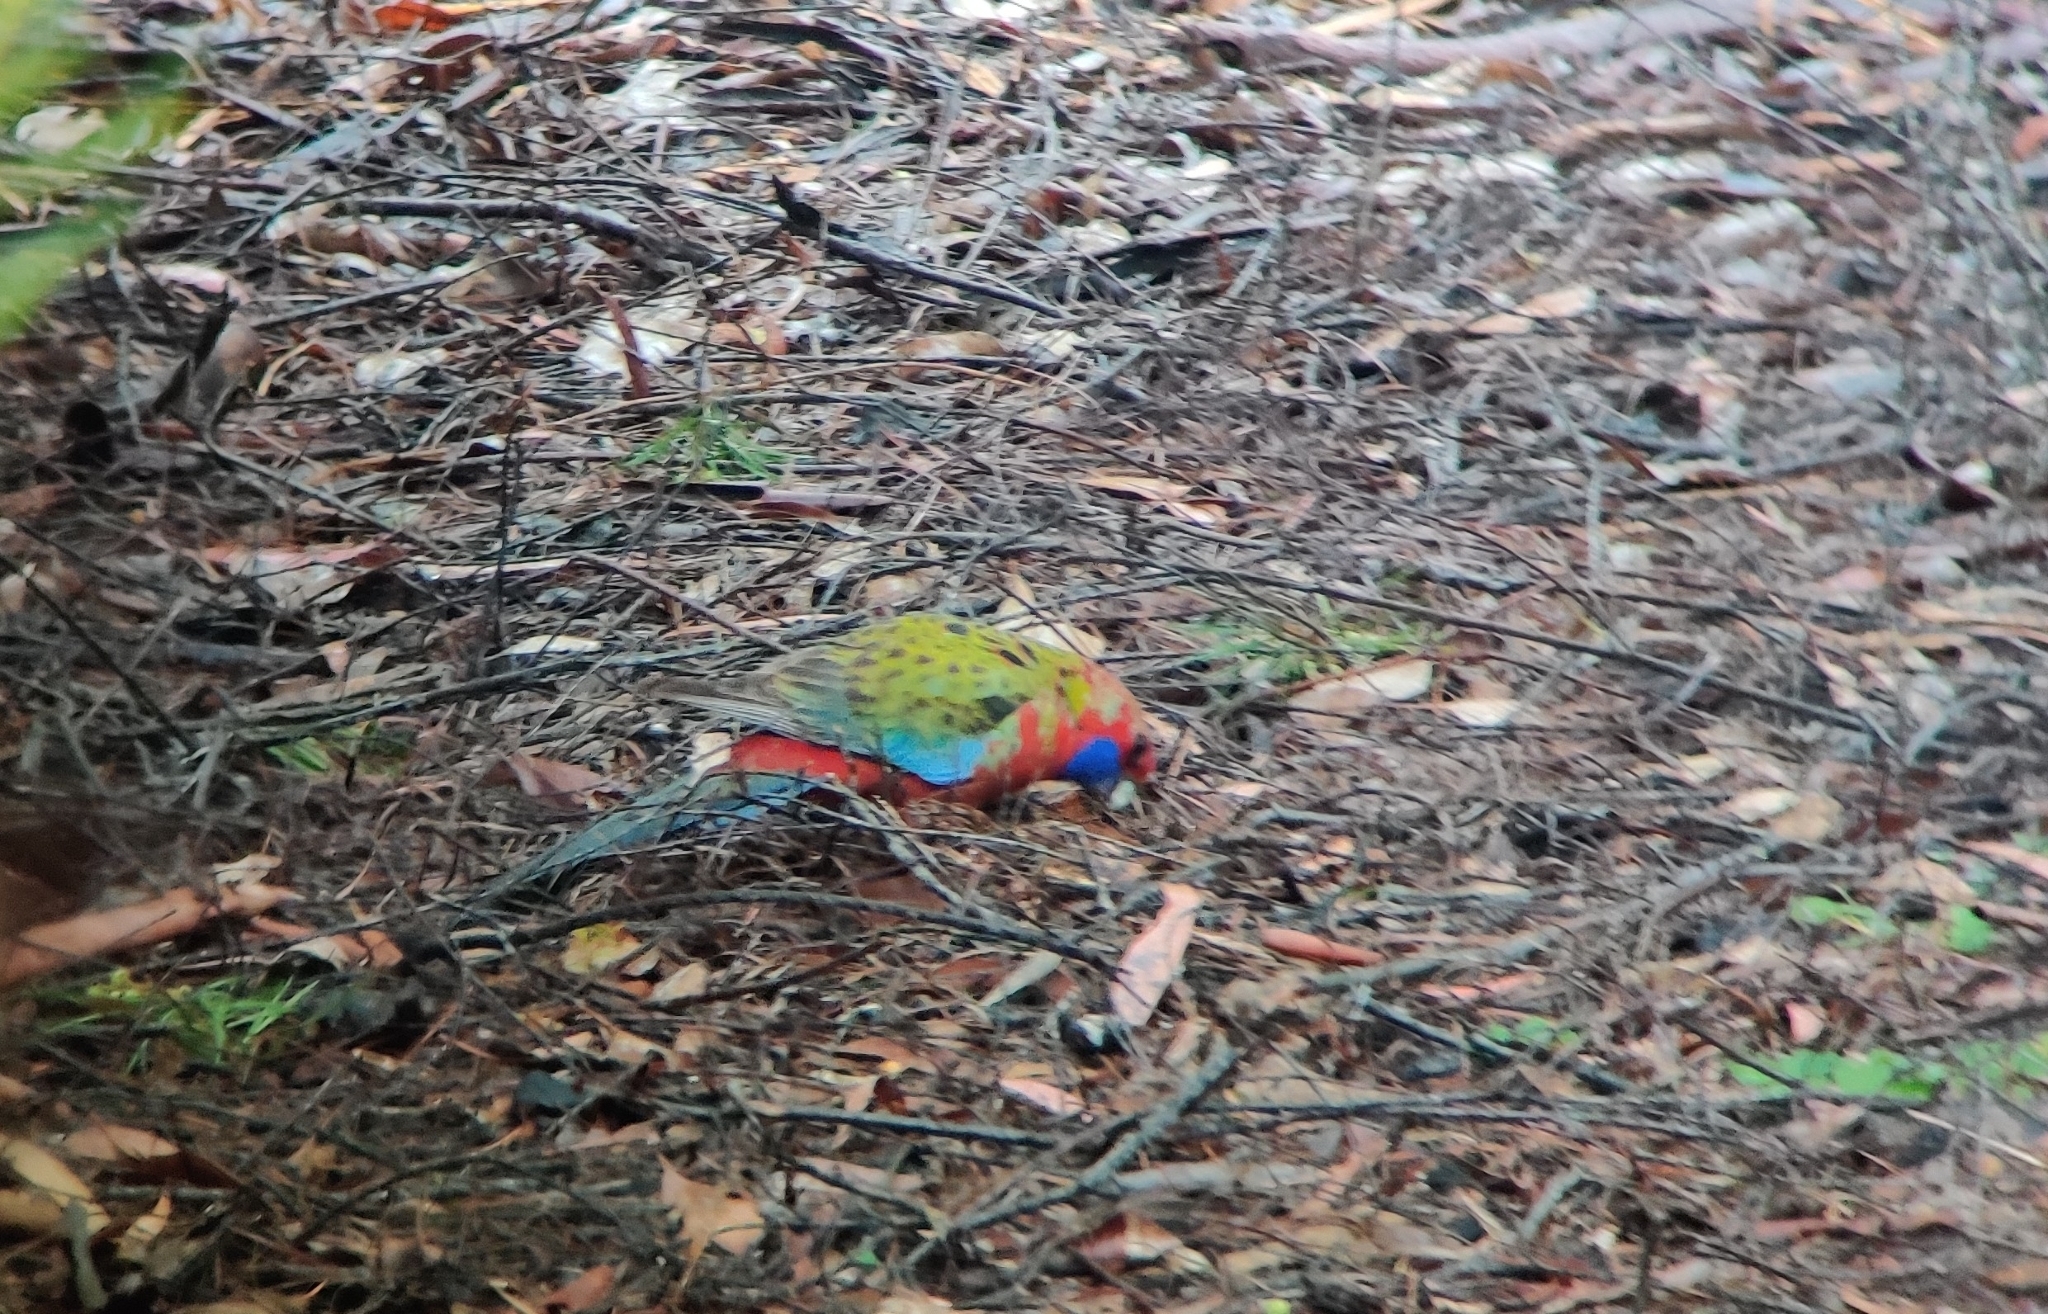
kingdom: Animalia
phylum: Chordata
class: Aves
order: Psittaciformes
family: Psittacidae
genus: Platycercus
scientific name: Platycercus elegans
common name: Crimson rosella
